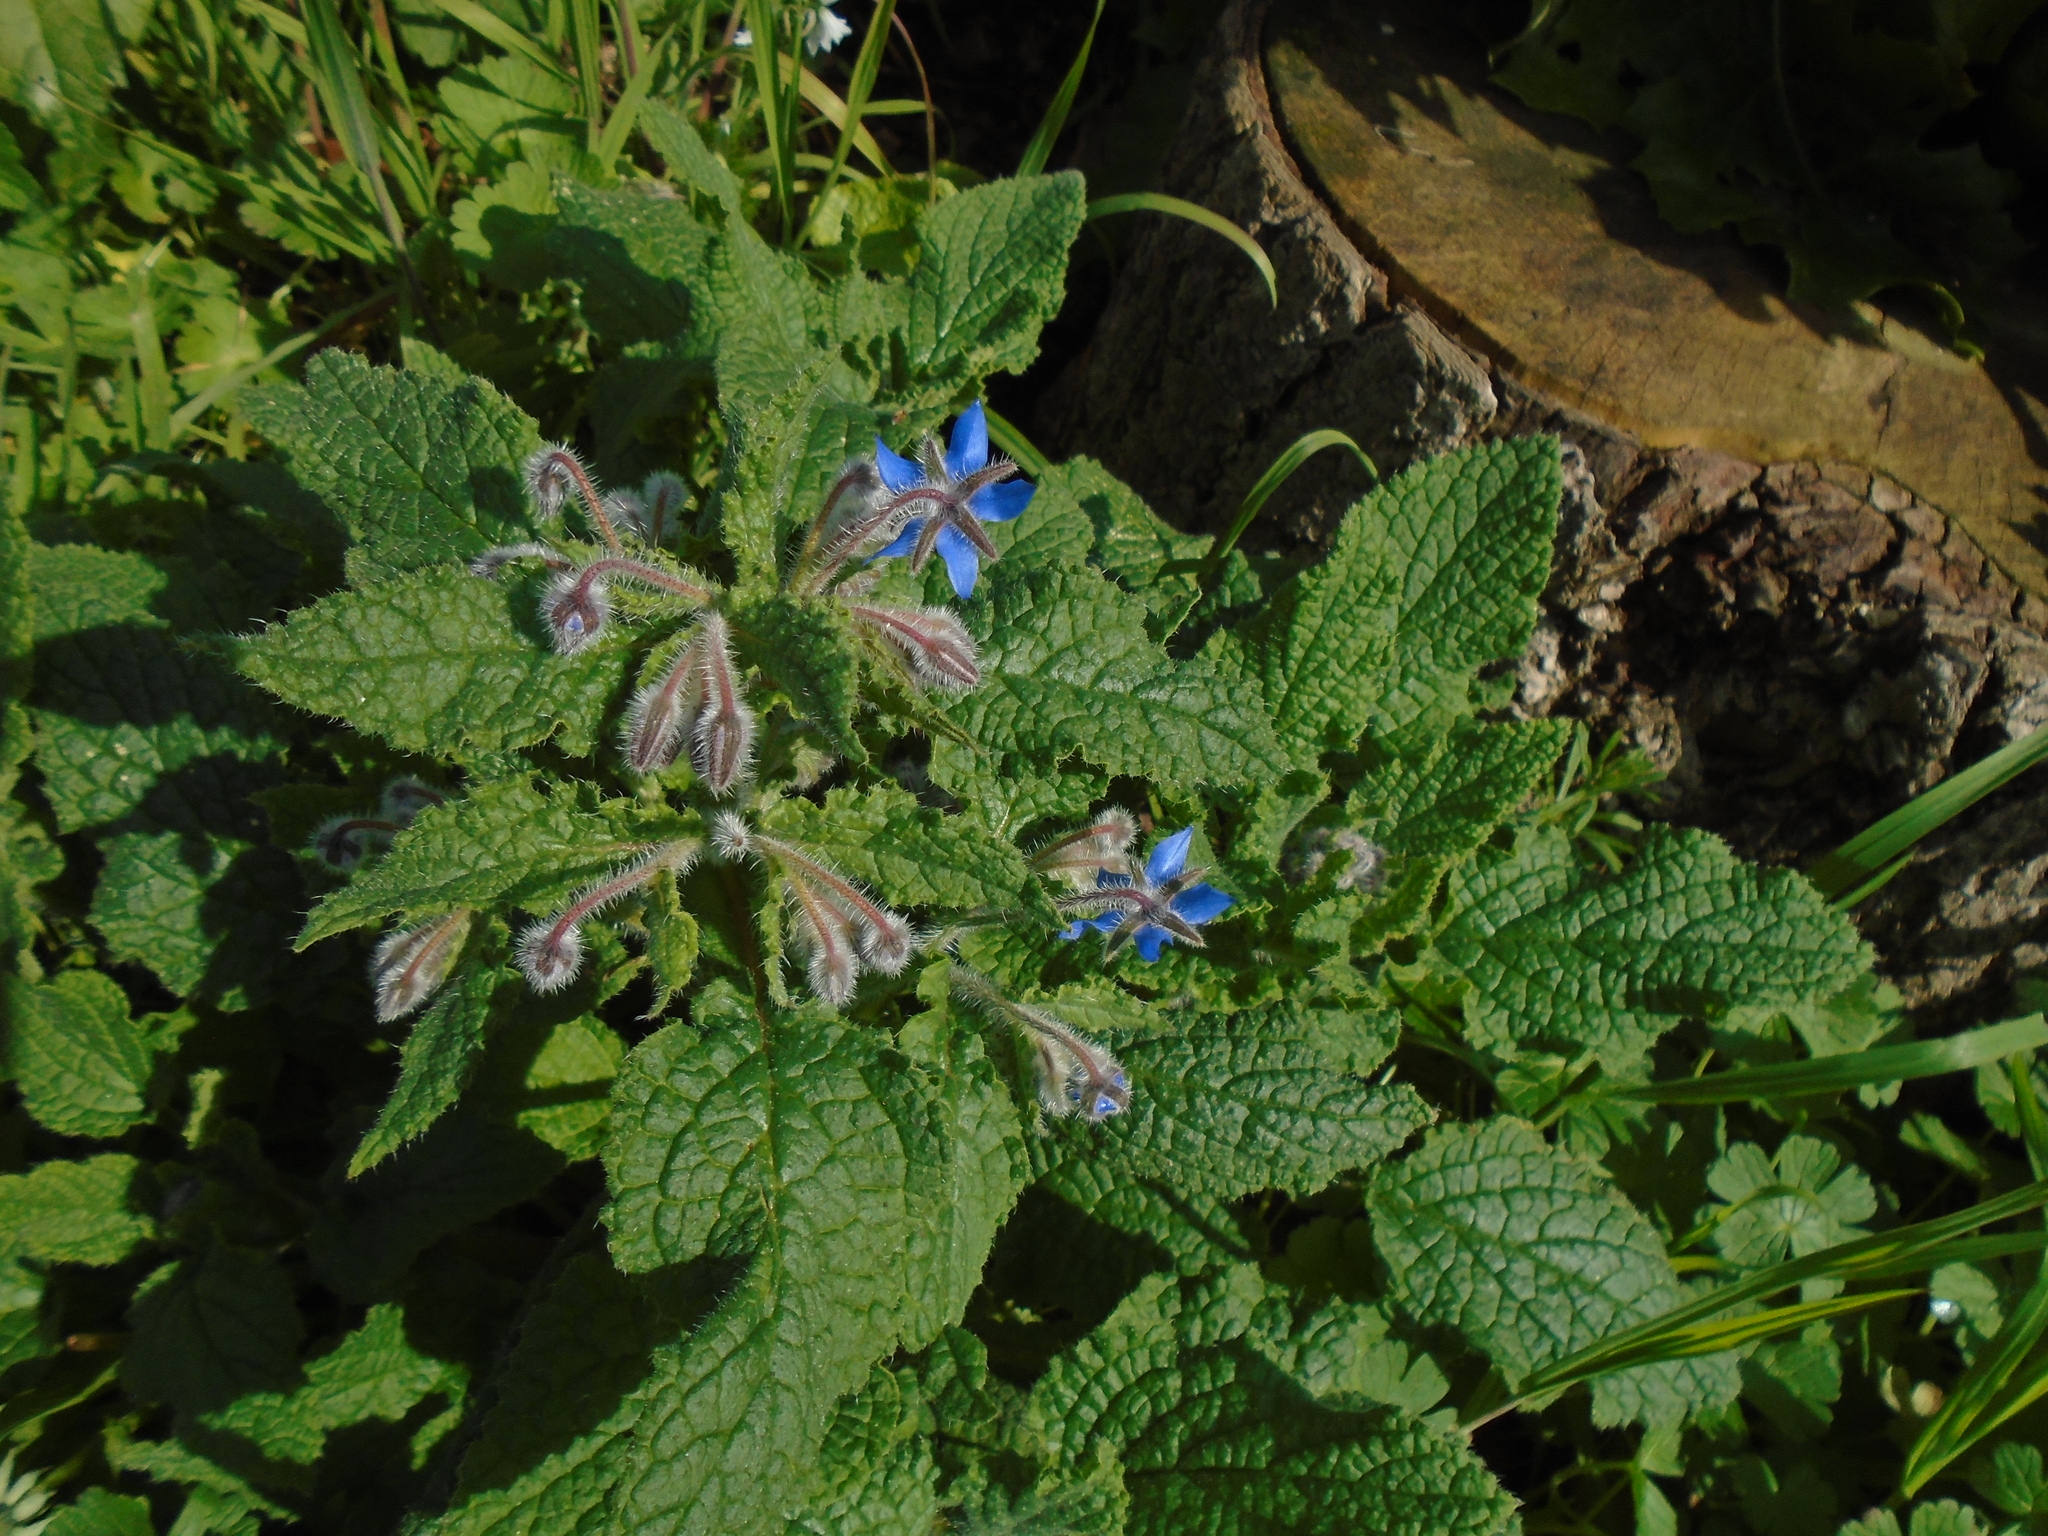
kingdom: Plantae
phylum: Tracheophyta
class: Magnoliopsida
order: Boraginales
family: Boraginaceae
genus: Borago
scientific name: Borago officinalis
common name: Borage
